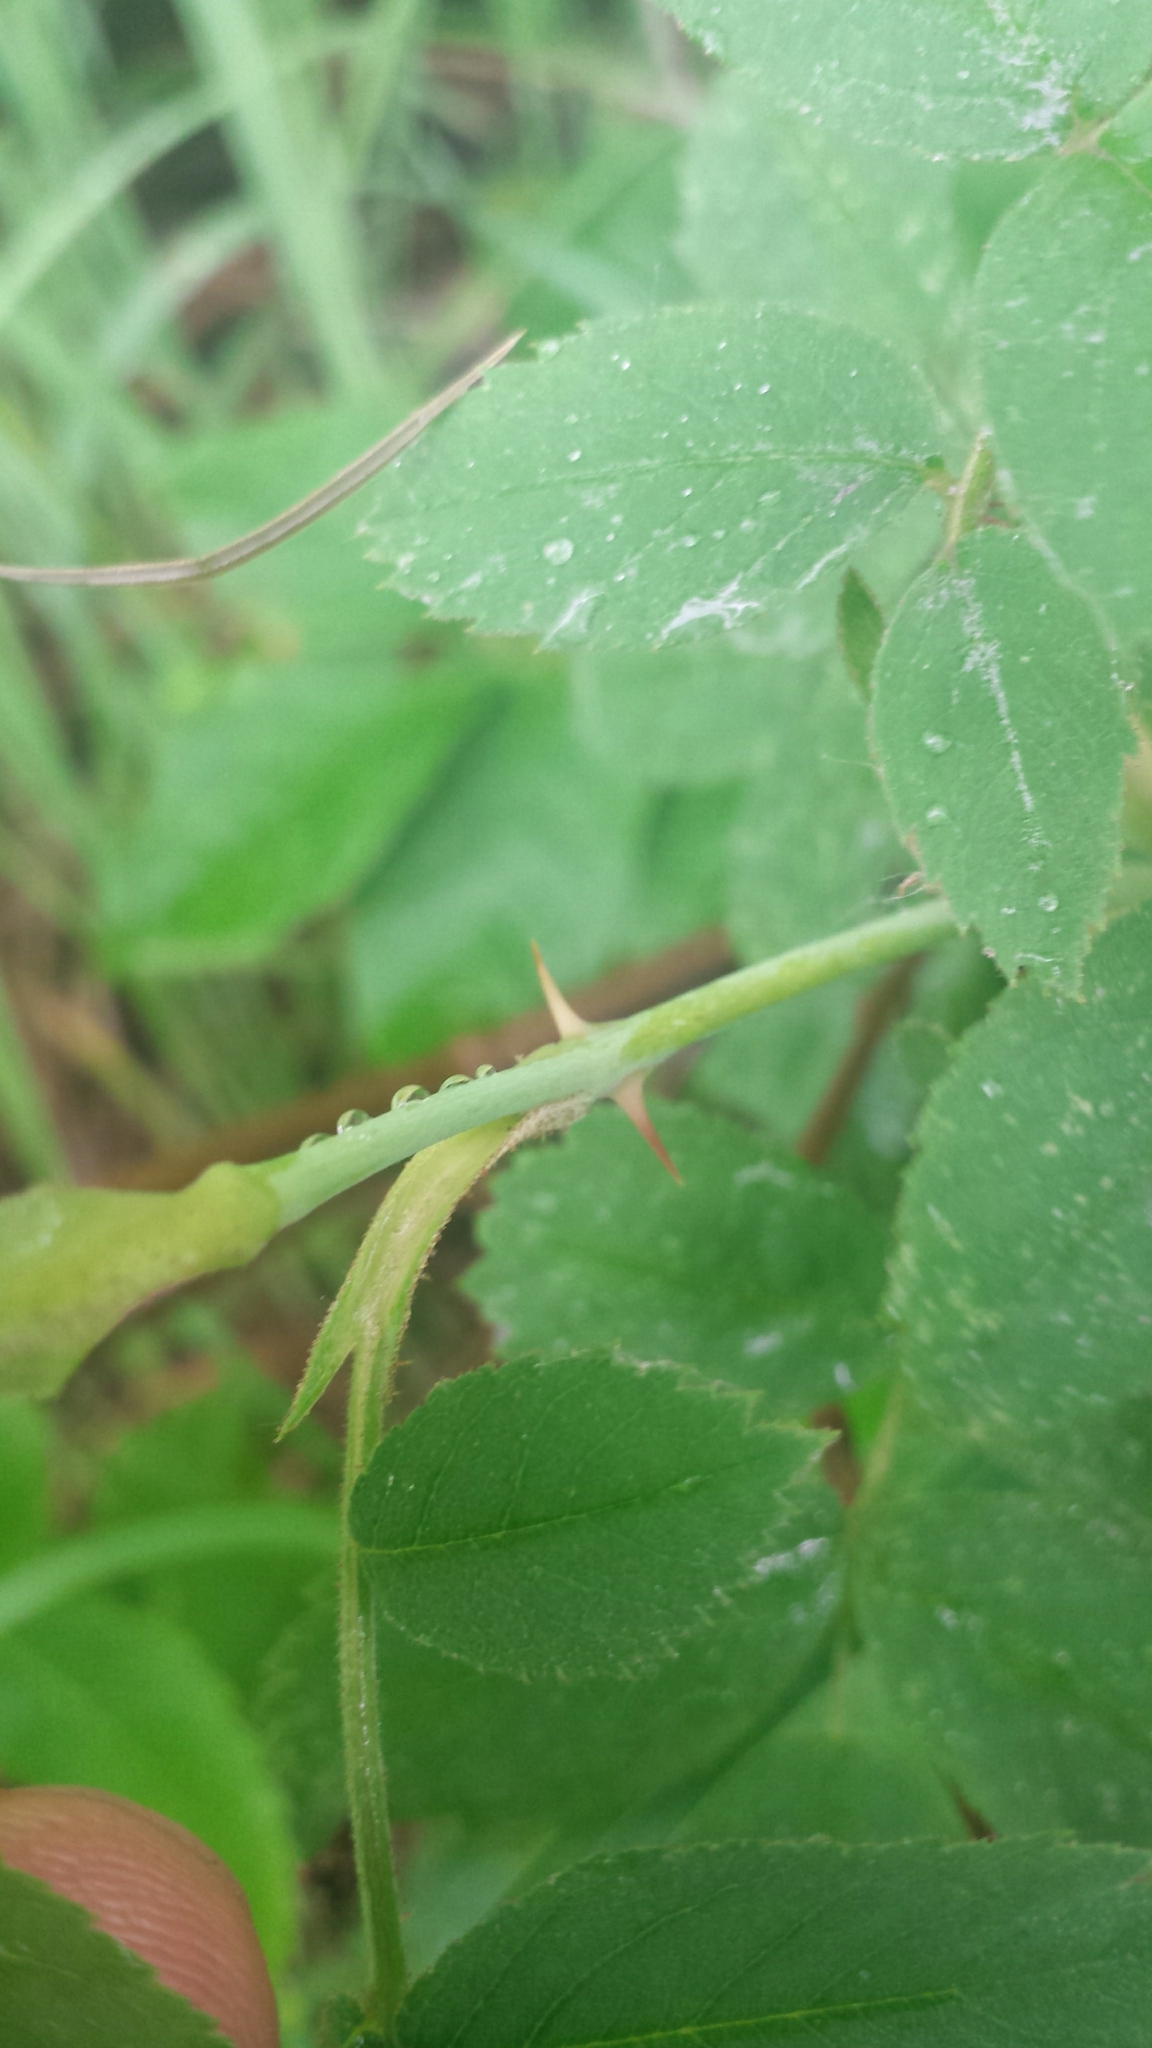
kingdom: Plantae
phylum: Tracheophyta
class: Magnoliopsida
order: Rosales
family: Rosaceae
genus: Rosa
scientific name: Rosa sherardii
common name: Sherard's downy rose
